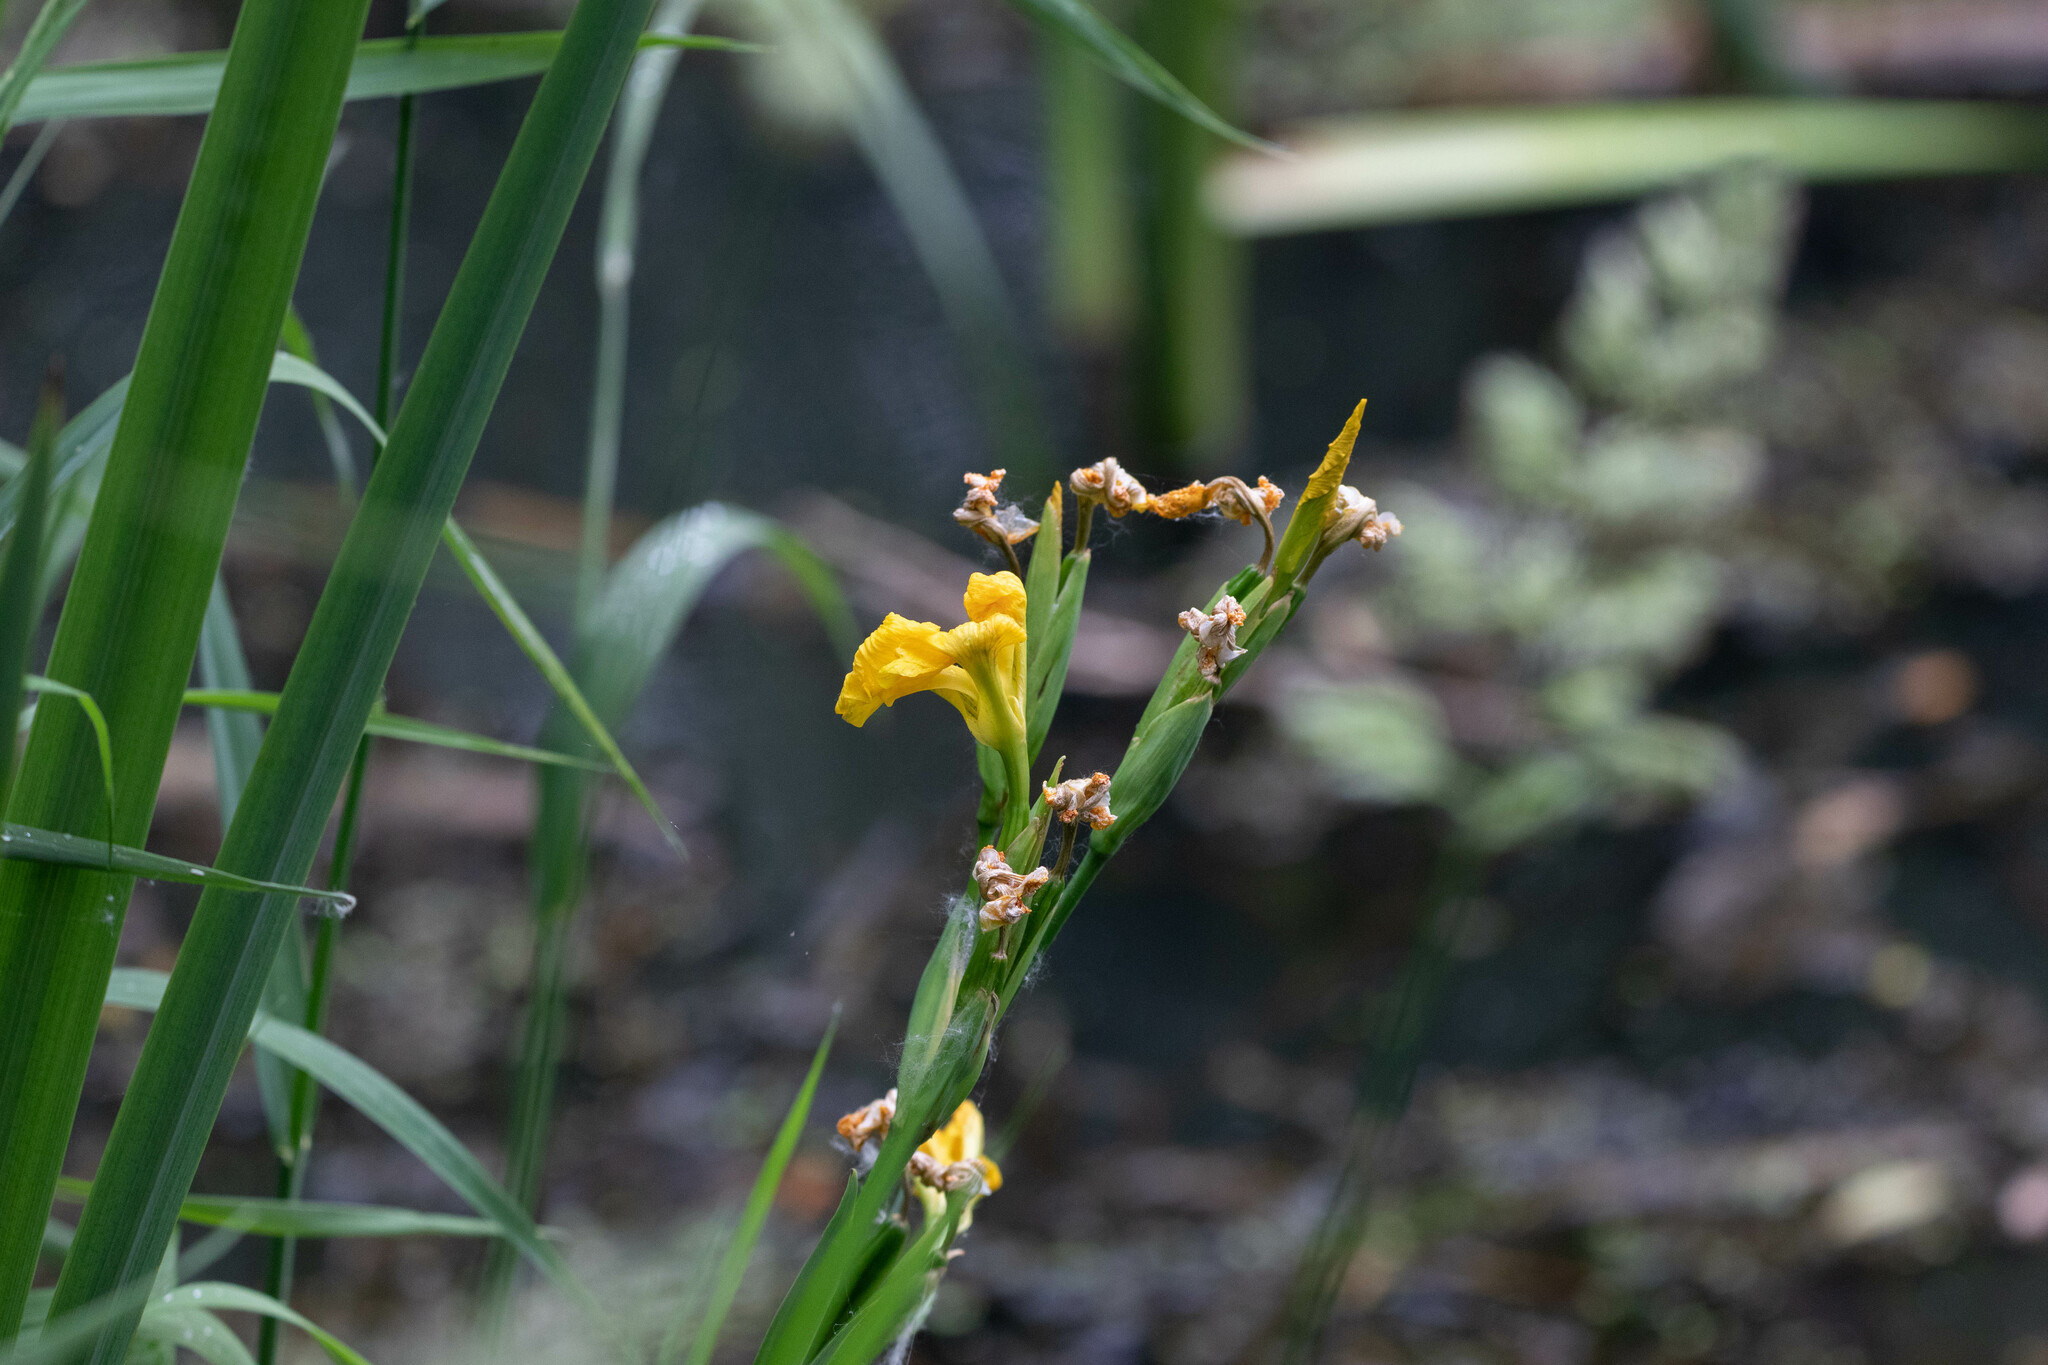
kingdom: Plantae
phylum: Tracheophyta
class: Liliopsida
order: Asparagales
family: Iridaceae
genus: Iris
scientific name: Iris pseudacorus
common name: Yellow flag
